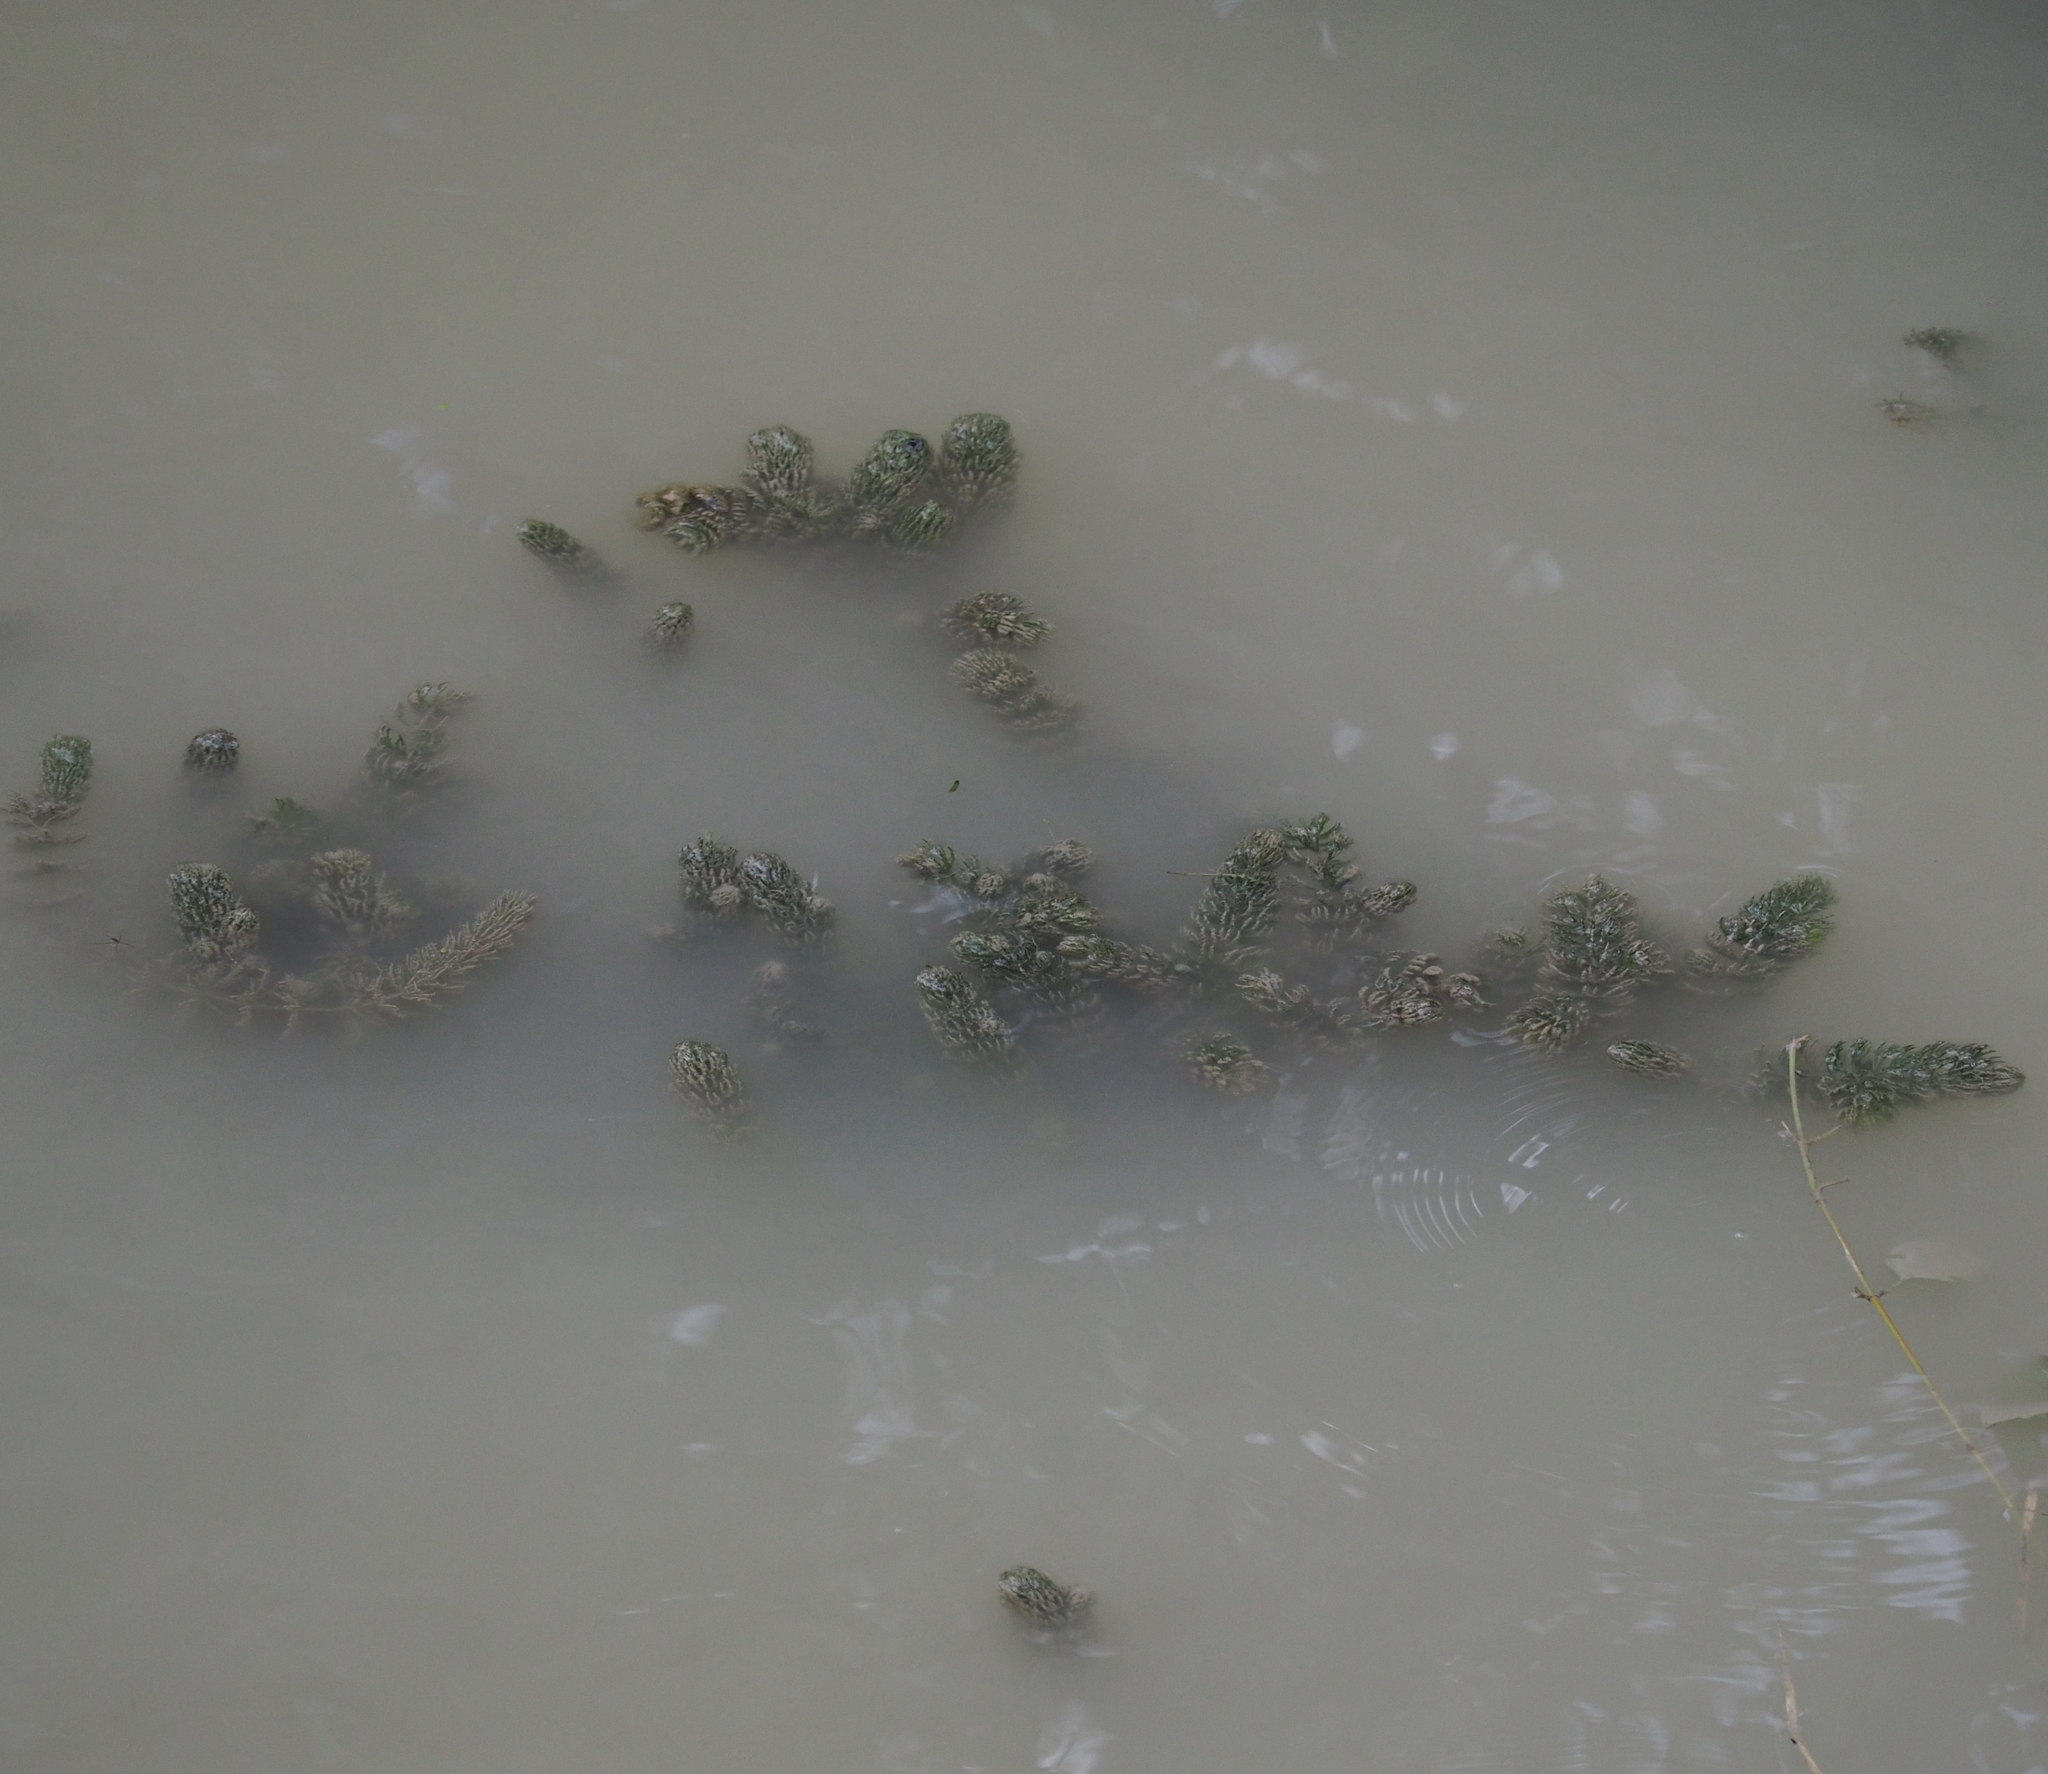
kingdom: Plantae
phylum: Tracheophyta
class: Magnoliopsida
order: Ceratophyllales
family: Ceratophyllaceae
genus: Ceratophyllum
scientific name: Ceratophyllum demersum
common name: Rigid hornwort
